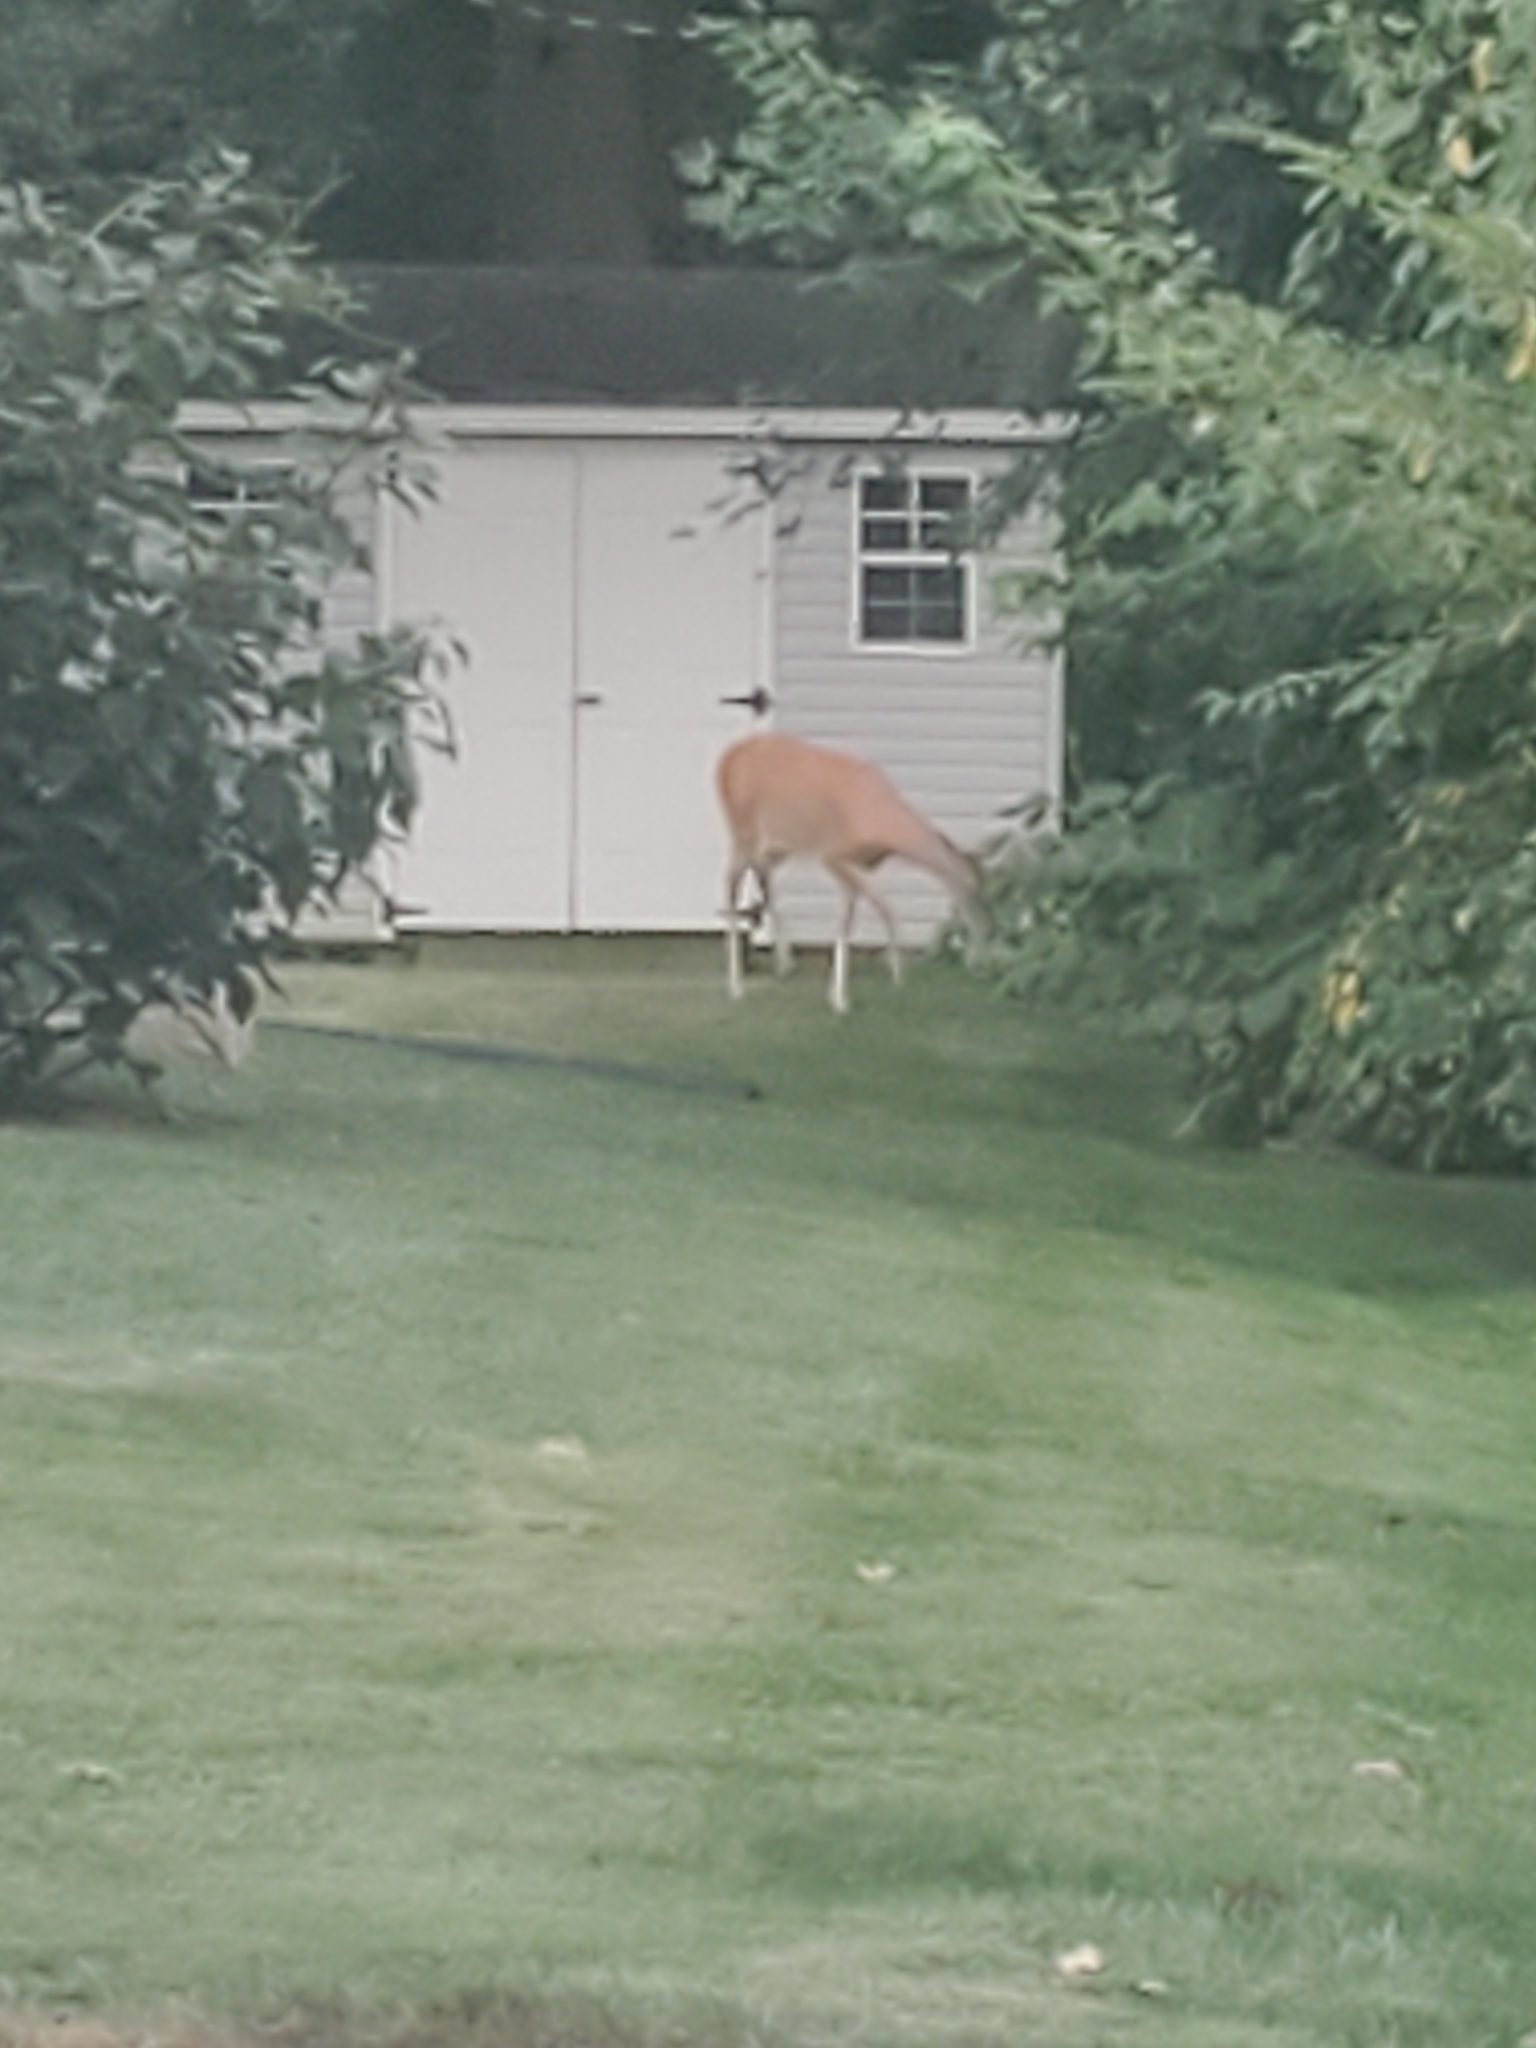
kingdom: Animalia
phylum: Chordata
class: Mammalia
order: Artiodactyla
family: Cervidae
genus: Odocoileus
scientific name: Odocoileus virginianus
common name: White-tailed deer
